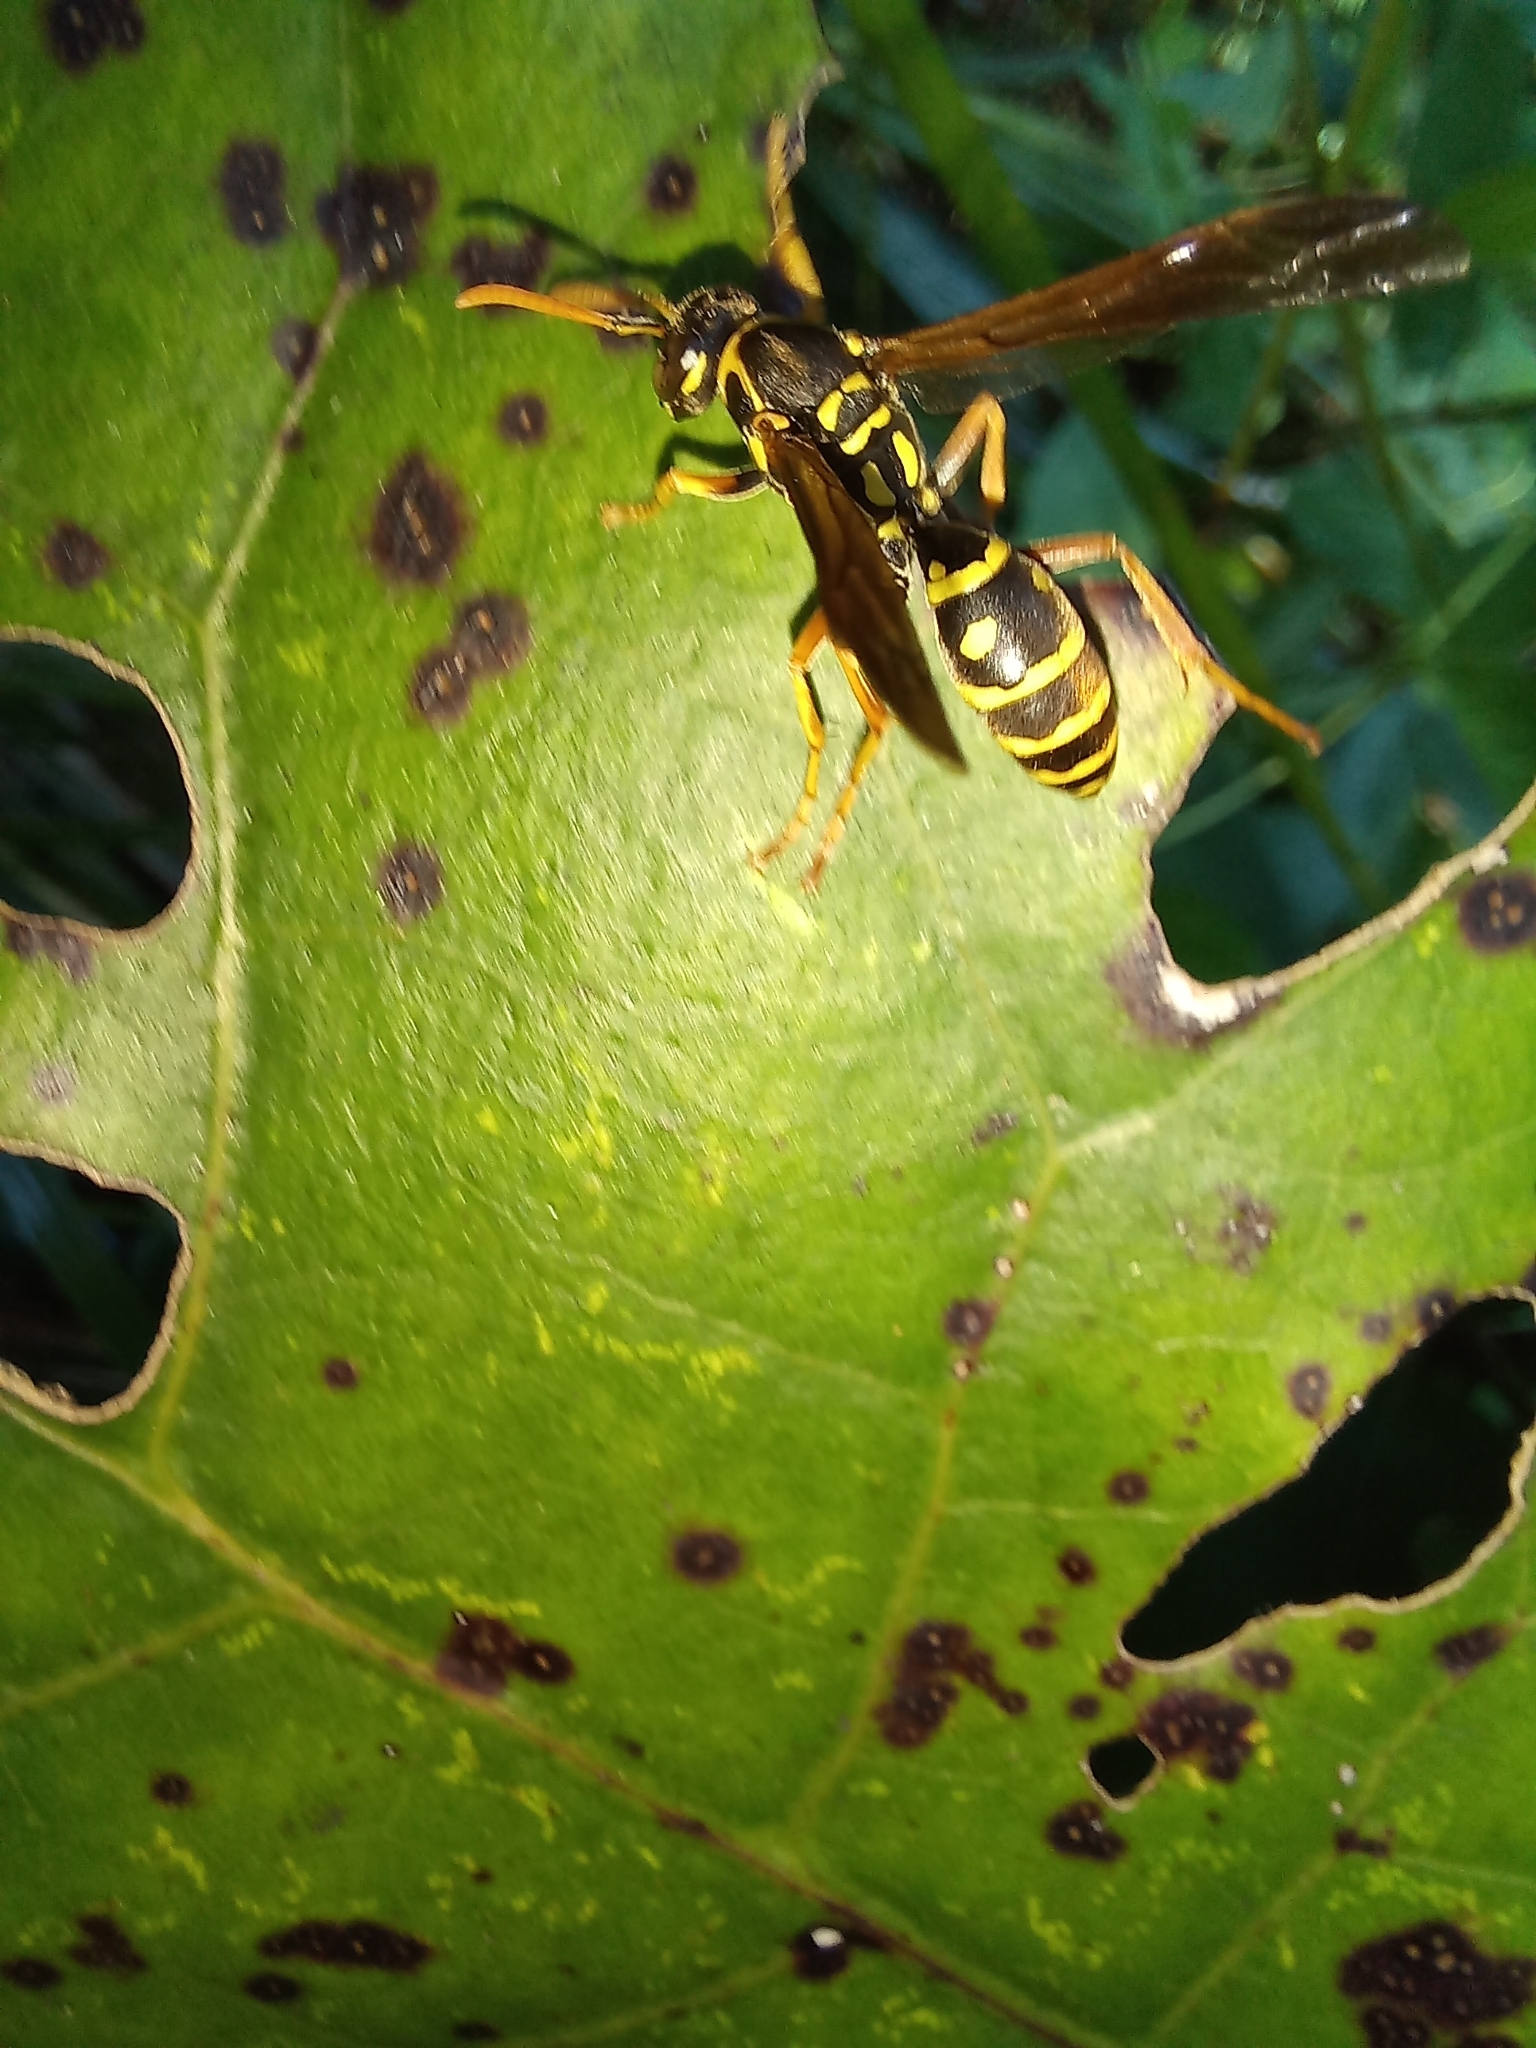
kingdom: Animalia
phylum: Arthropoda
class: Insecta
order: Hymenoptera
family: Eumenidae
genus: Polistes
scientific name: Polistes chinensis
